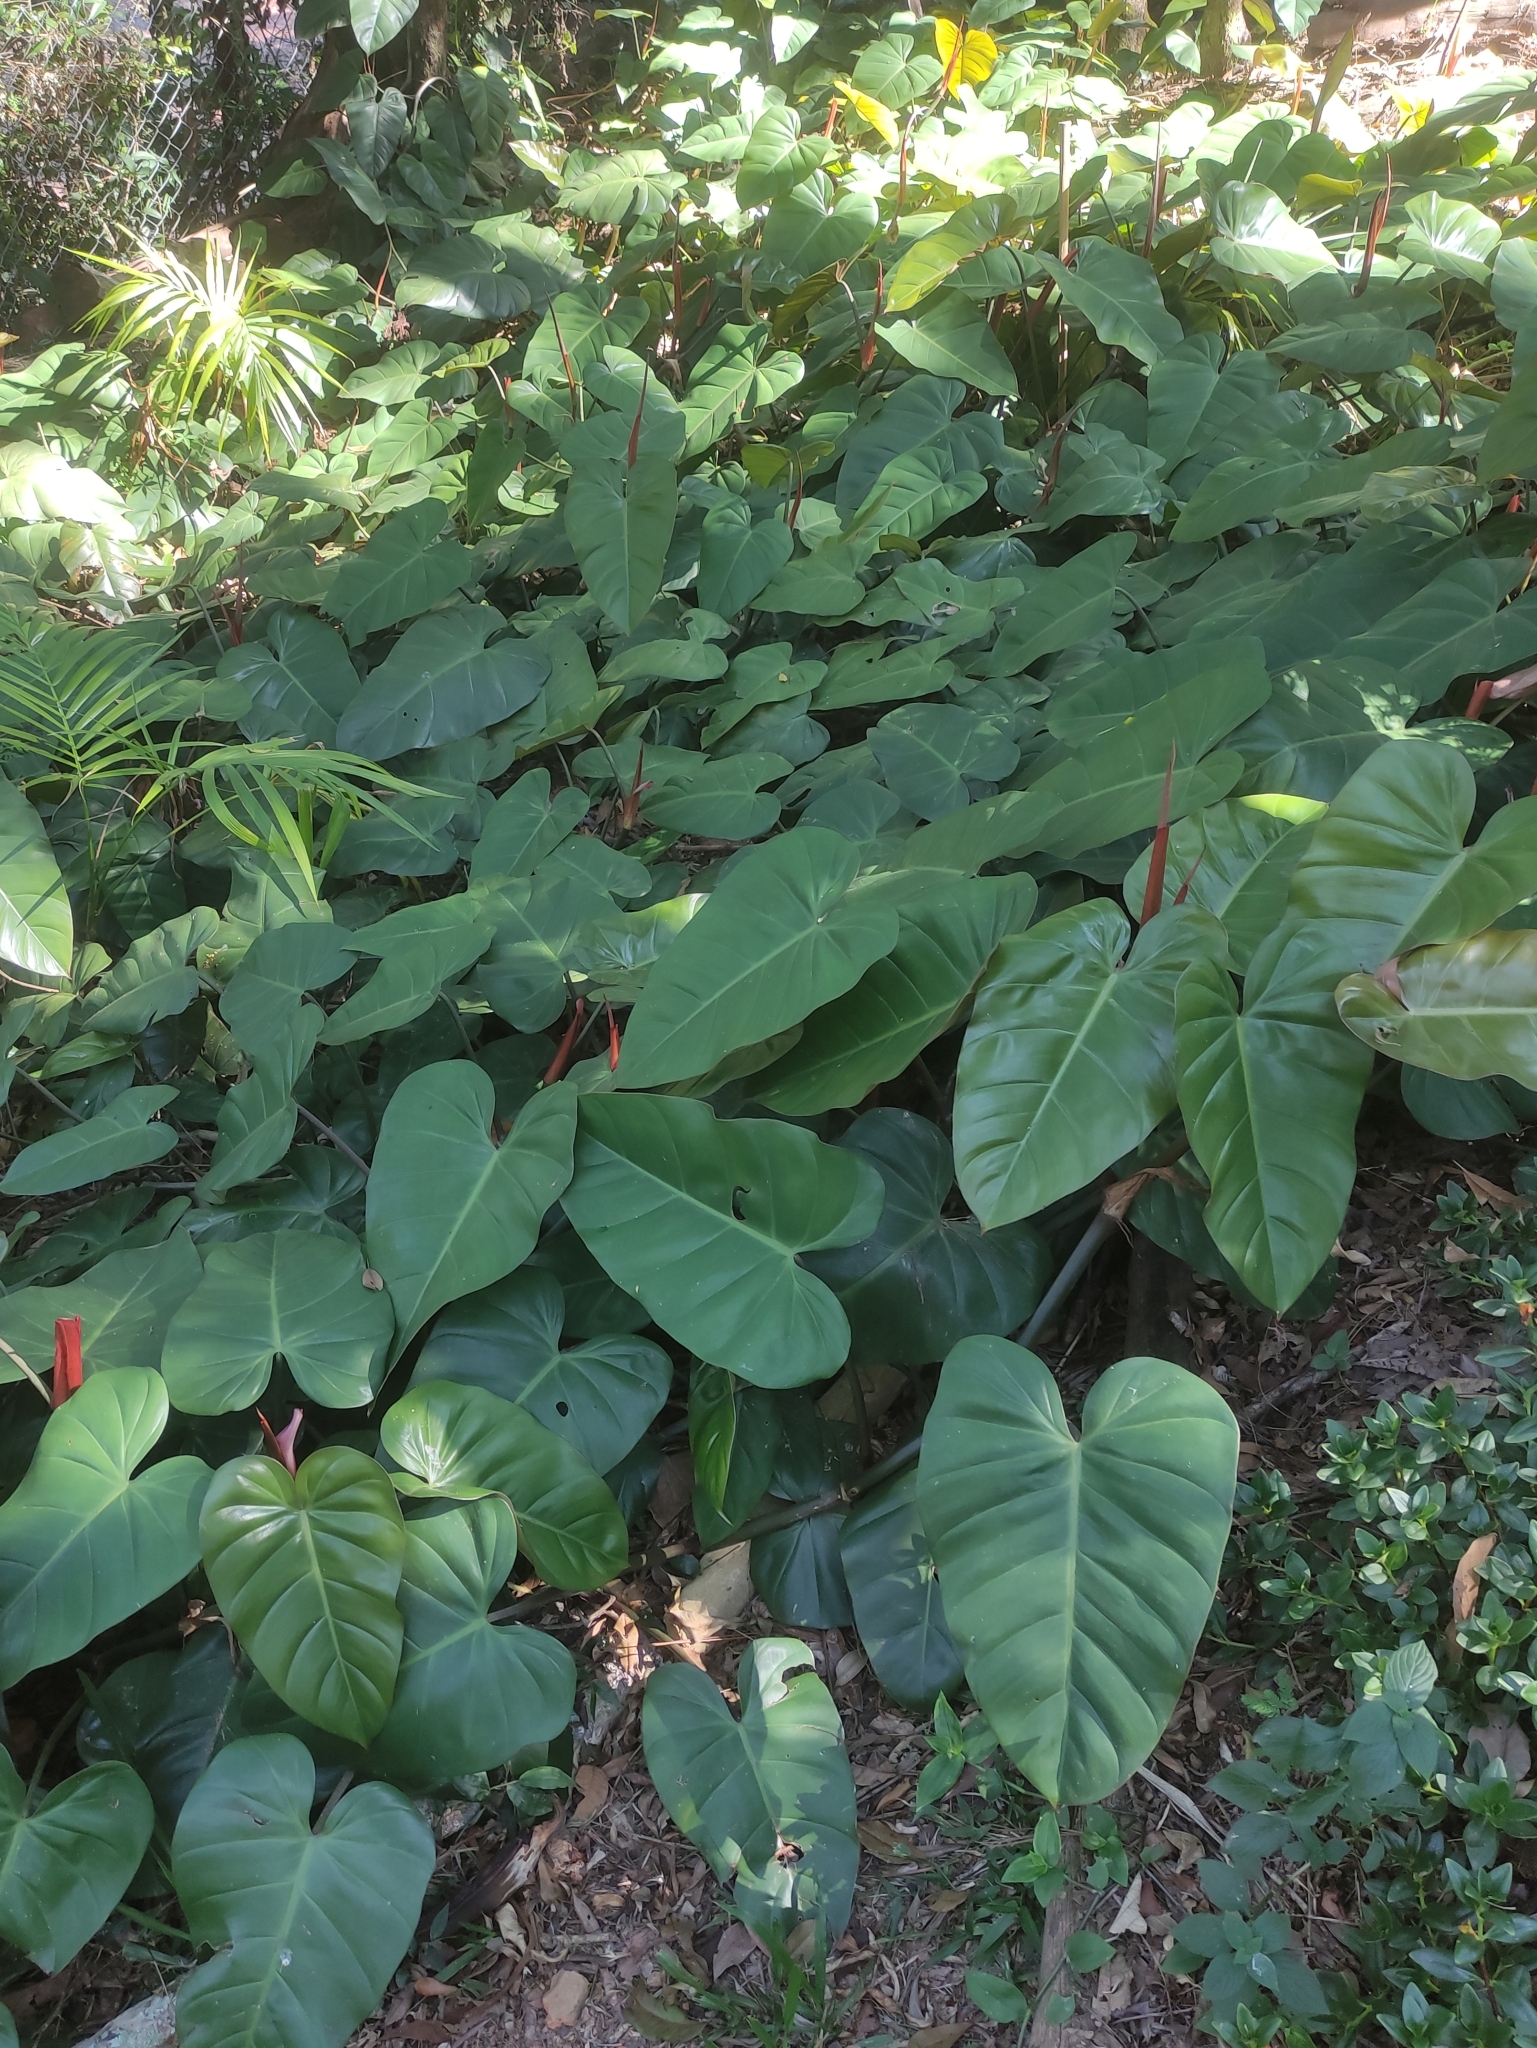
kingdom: Plantae
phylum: Tracheophyta
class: Liliopsida
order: Alismatales
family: Araceae
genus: Philodendron
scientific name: Philodendron erubescens
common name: Philodendron
